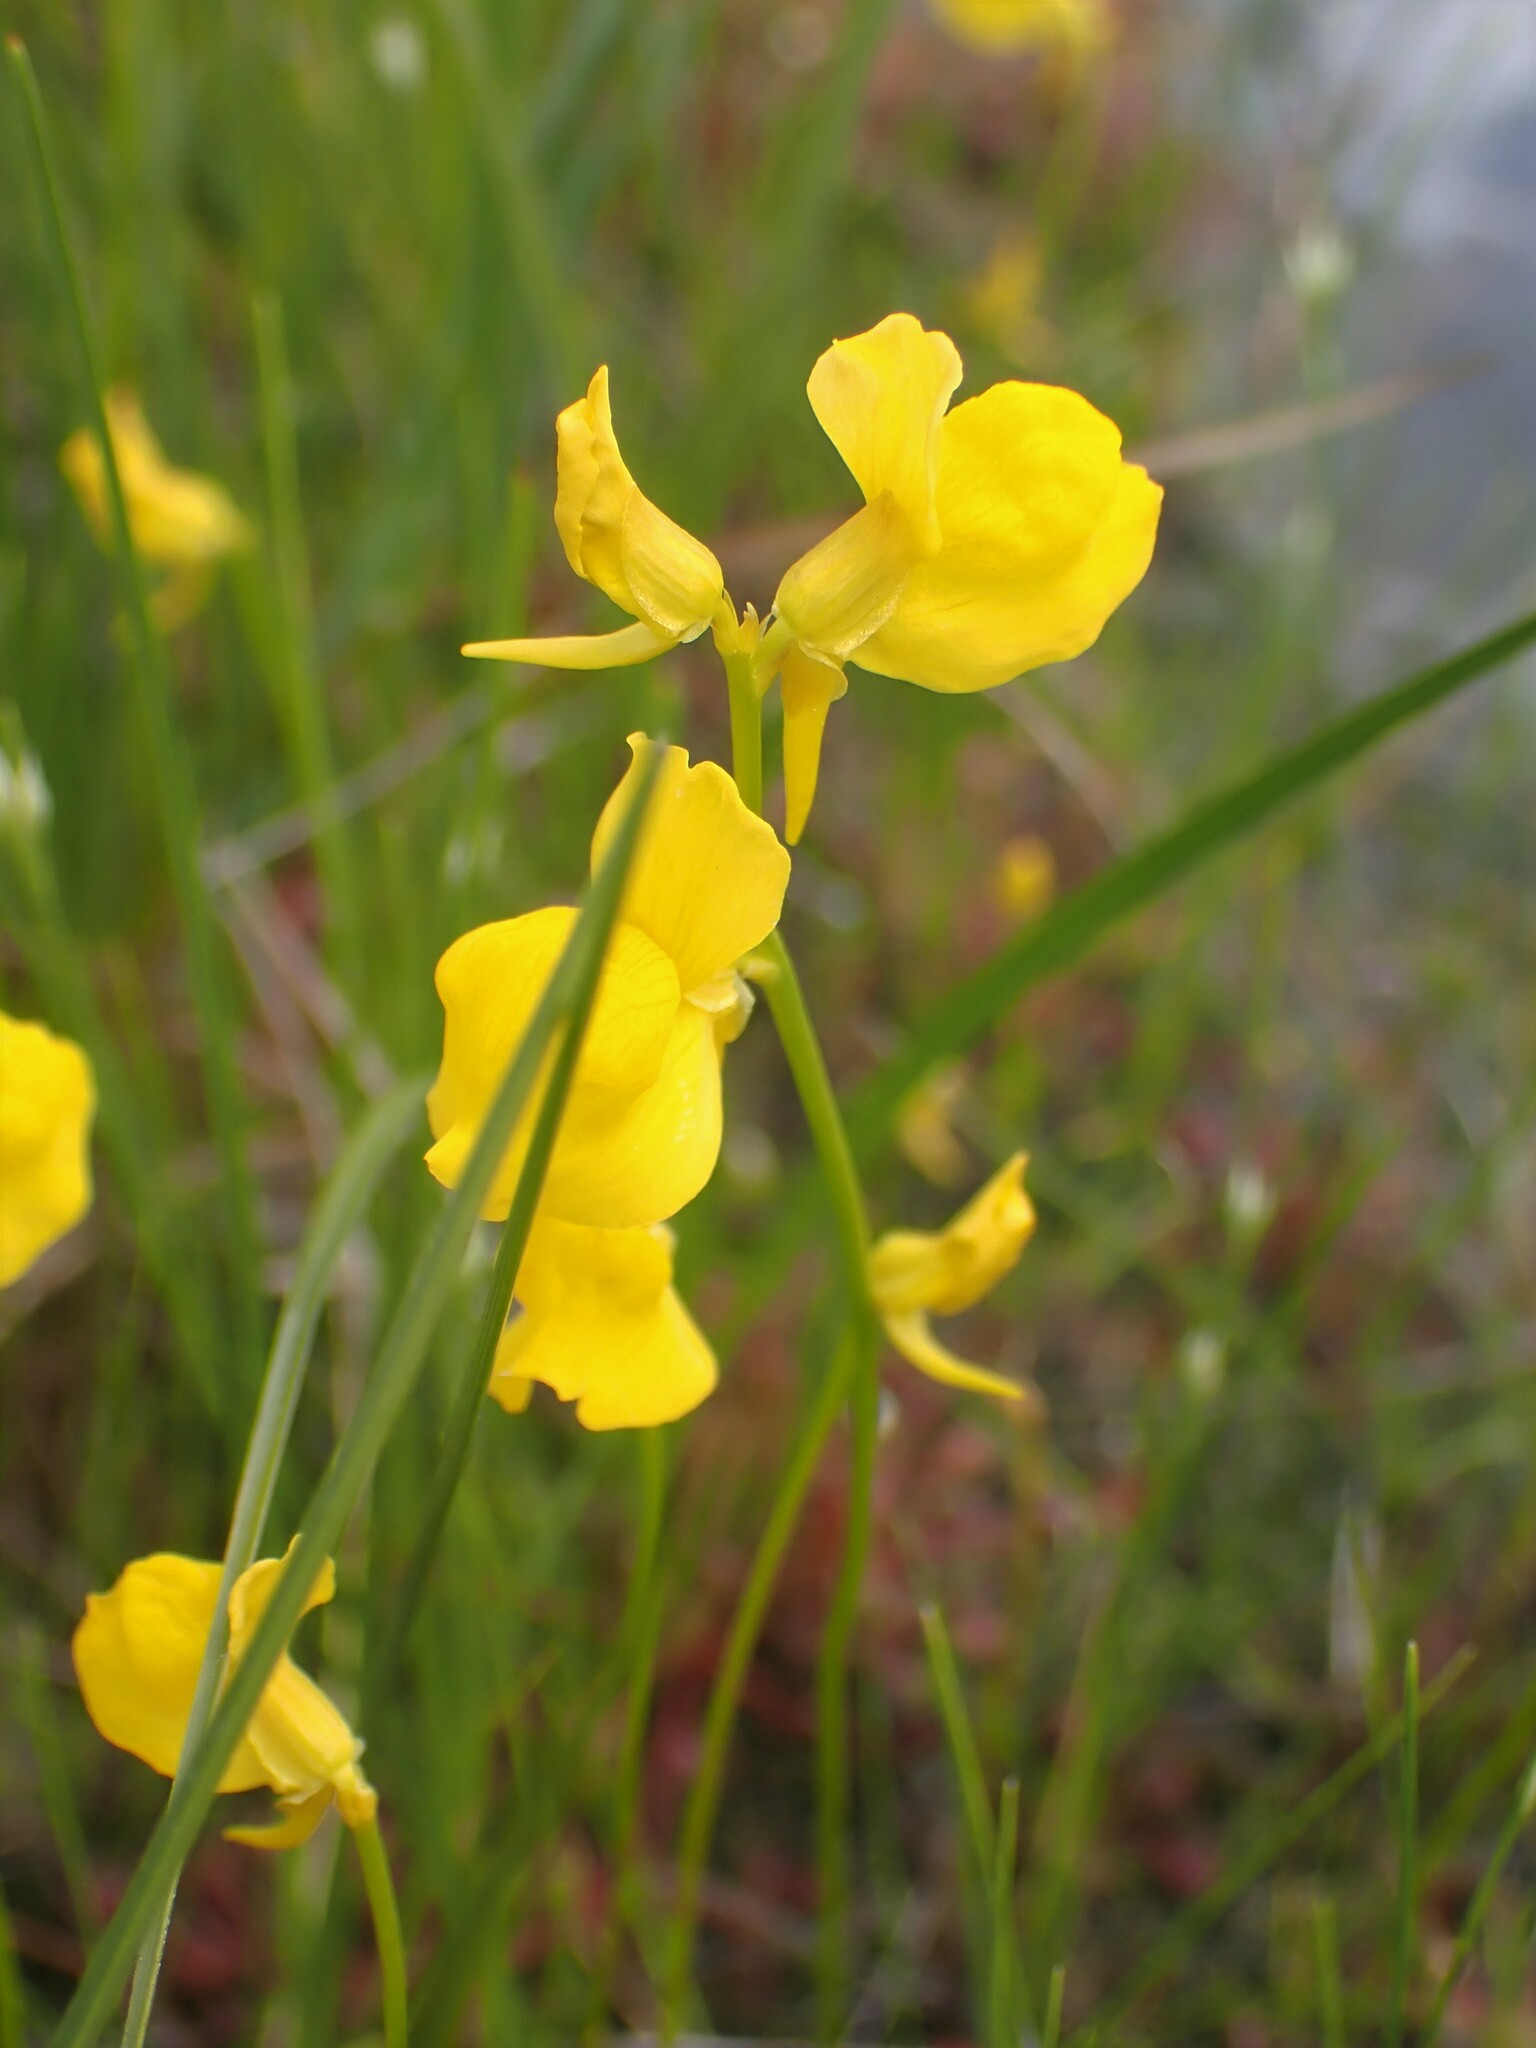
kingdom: Plantae
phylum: Tracheophyta
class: Magnoliopsida
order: Lamiales
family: Lentibulariaceae
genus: Utricularia
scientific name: Utricularia cornuta
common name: Horned bladderwort
